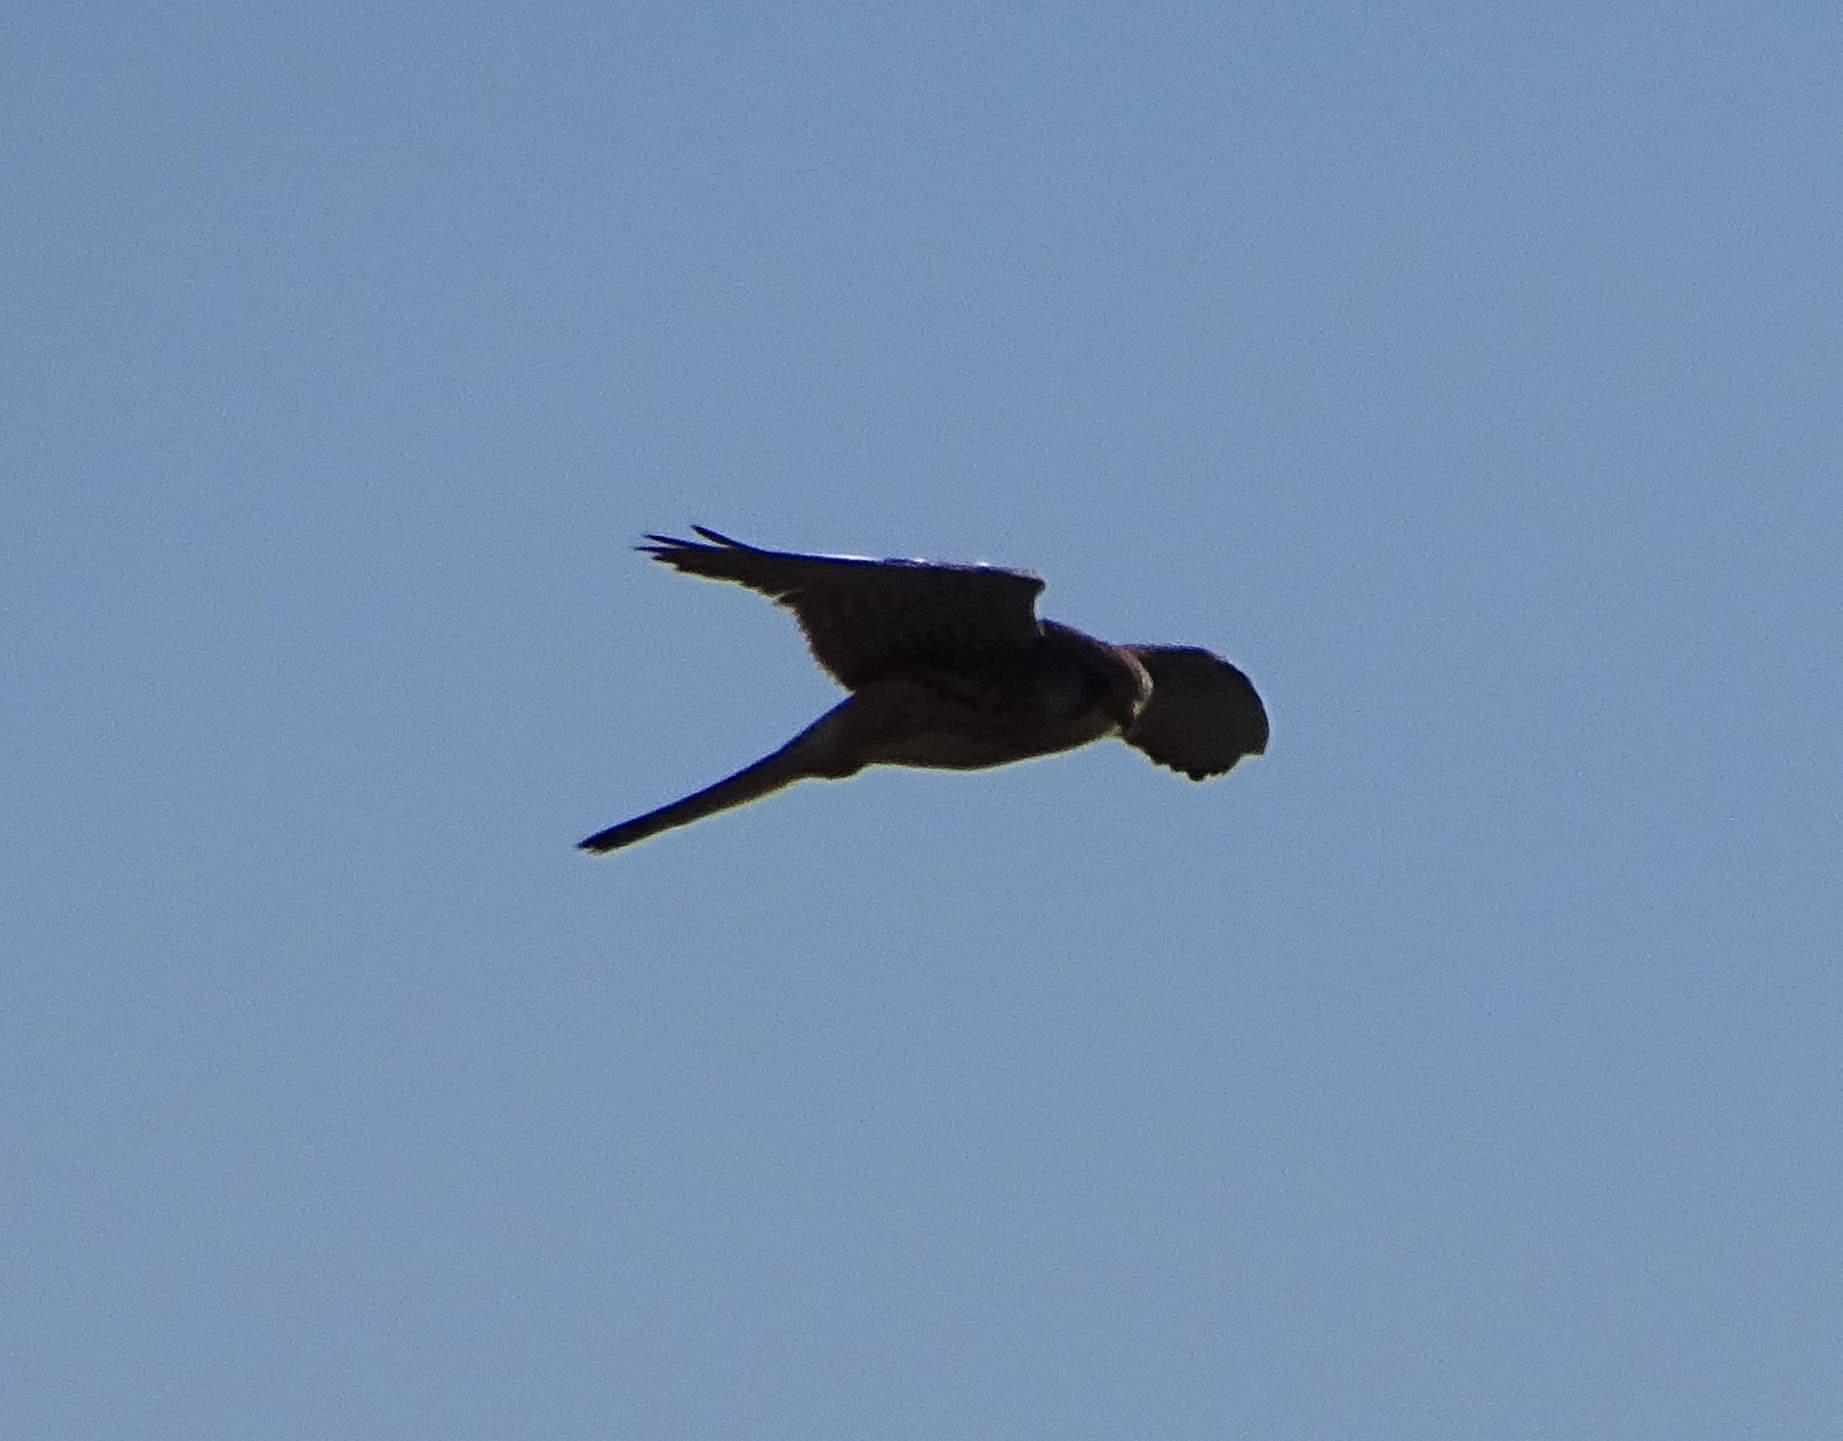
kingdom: Animalia
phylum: Chordata
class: Aves
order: Falconiformes
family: Falconidae
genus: Falco
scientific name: Falco tinnunculus
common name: Common kestrel
